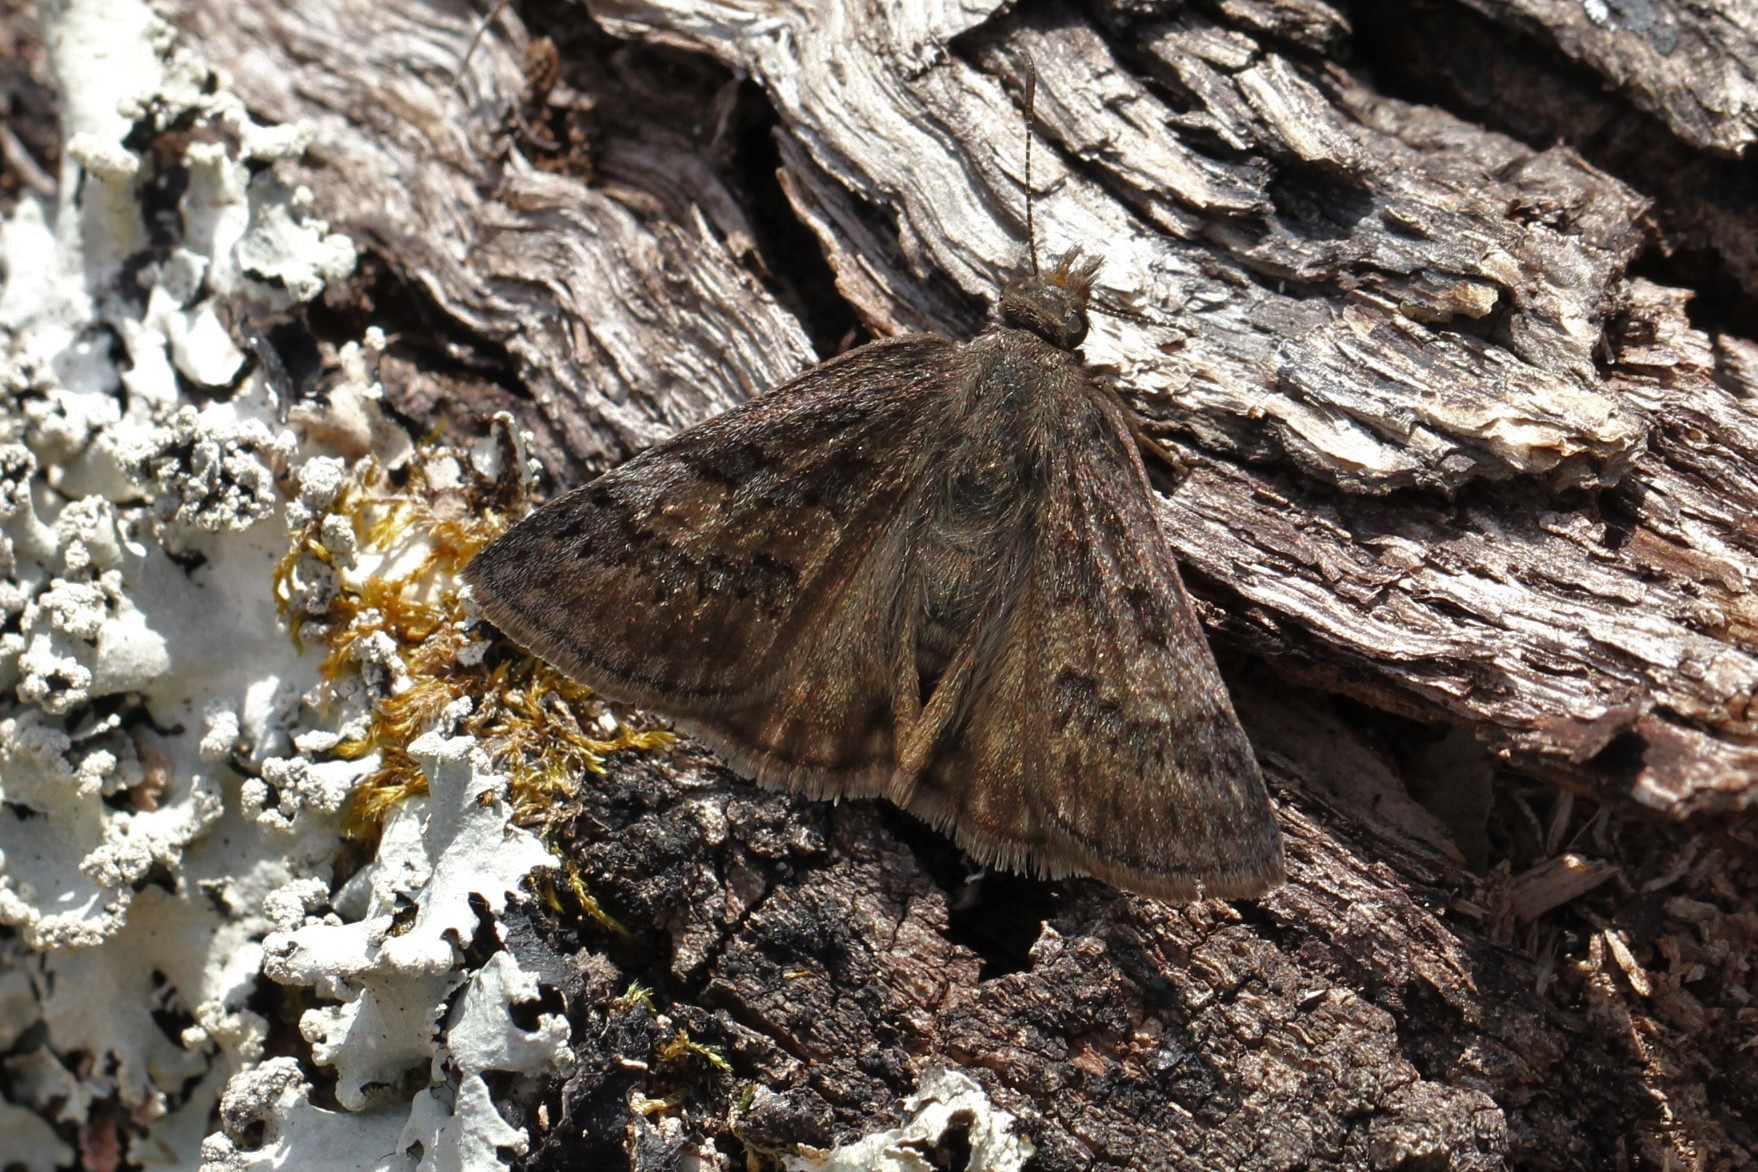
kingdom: Animalia
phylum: Arthropoda
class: Insecta
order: Lepidoptera
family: Hesperiidae
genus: Erynnis
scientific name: Erynnis brizo
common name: Sleepy duskywing
